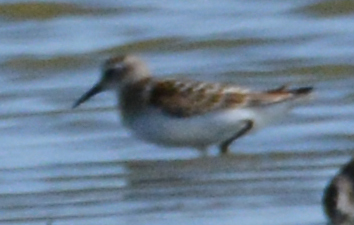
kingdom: Animalia
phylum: Chordata
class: Aves
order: Charadriiformes
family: Scolopacidae
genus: Calidris
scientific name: Calidris minuta
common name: Little stint
